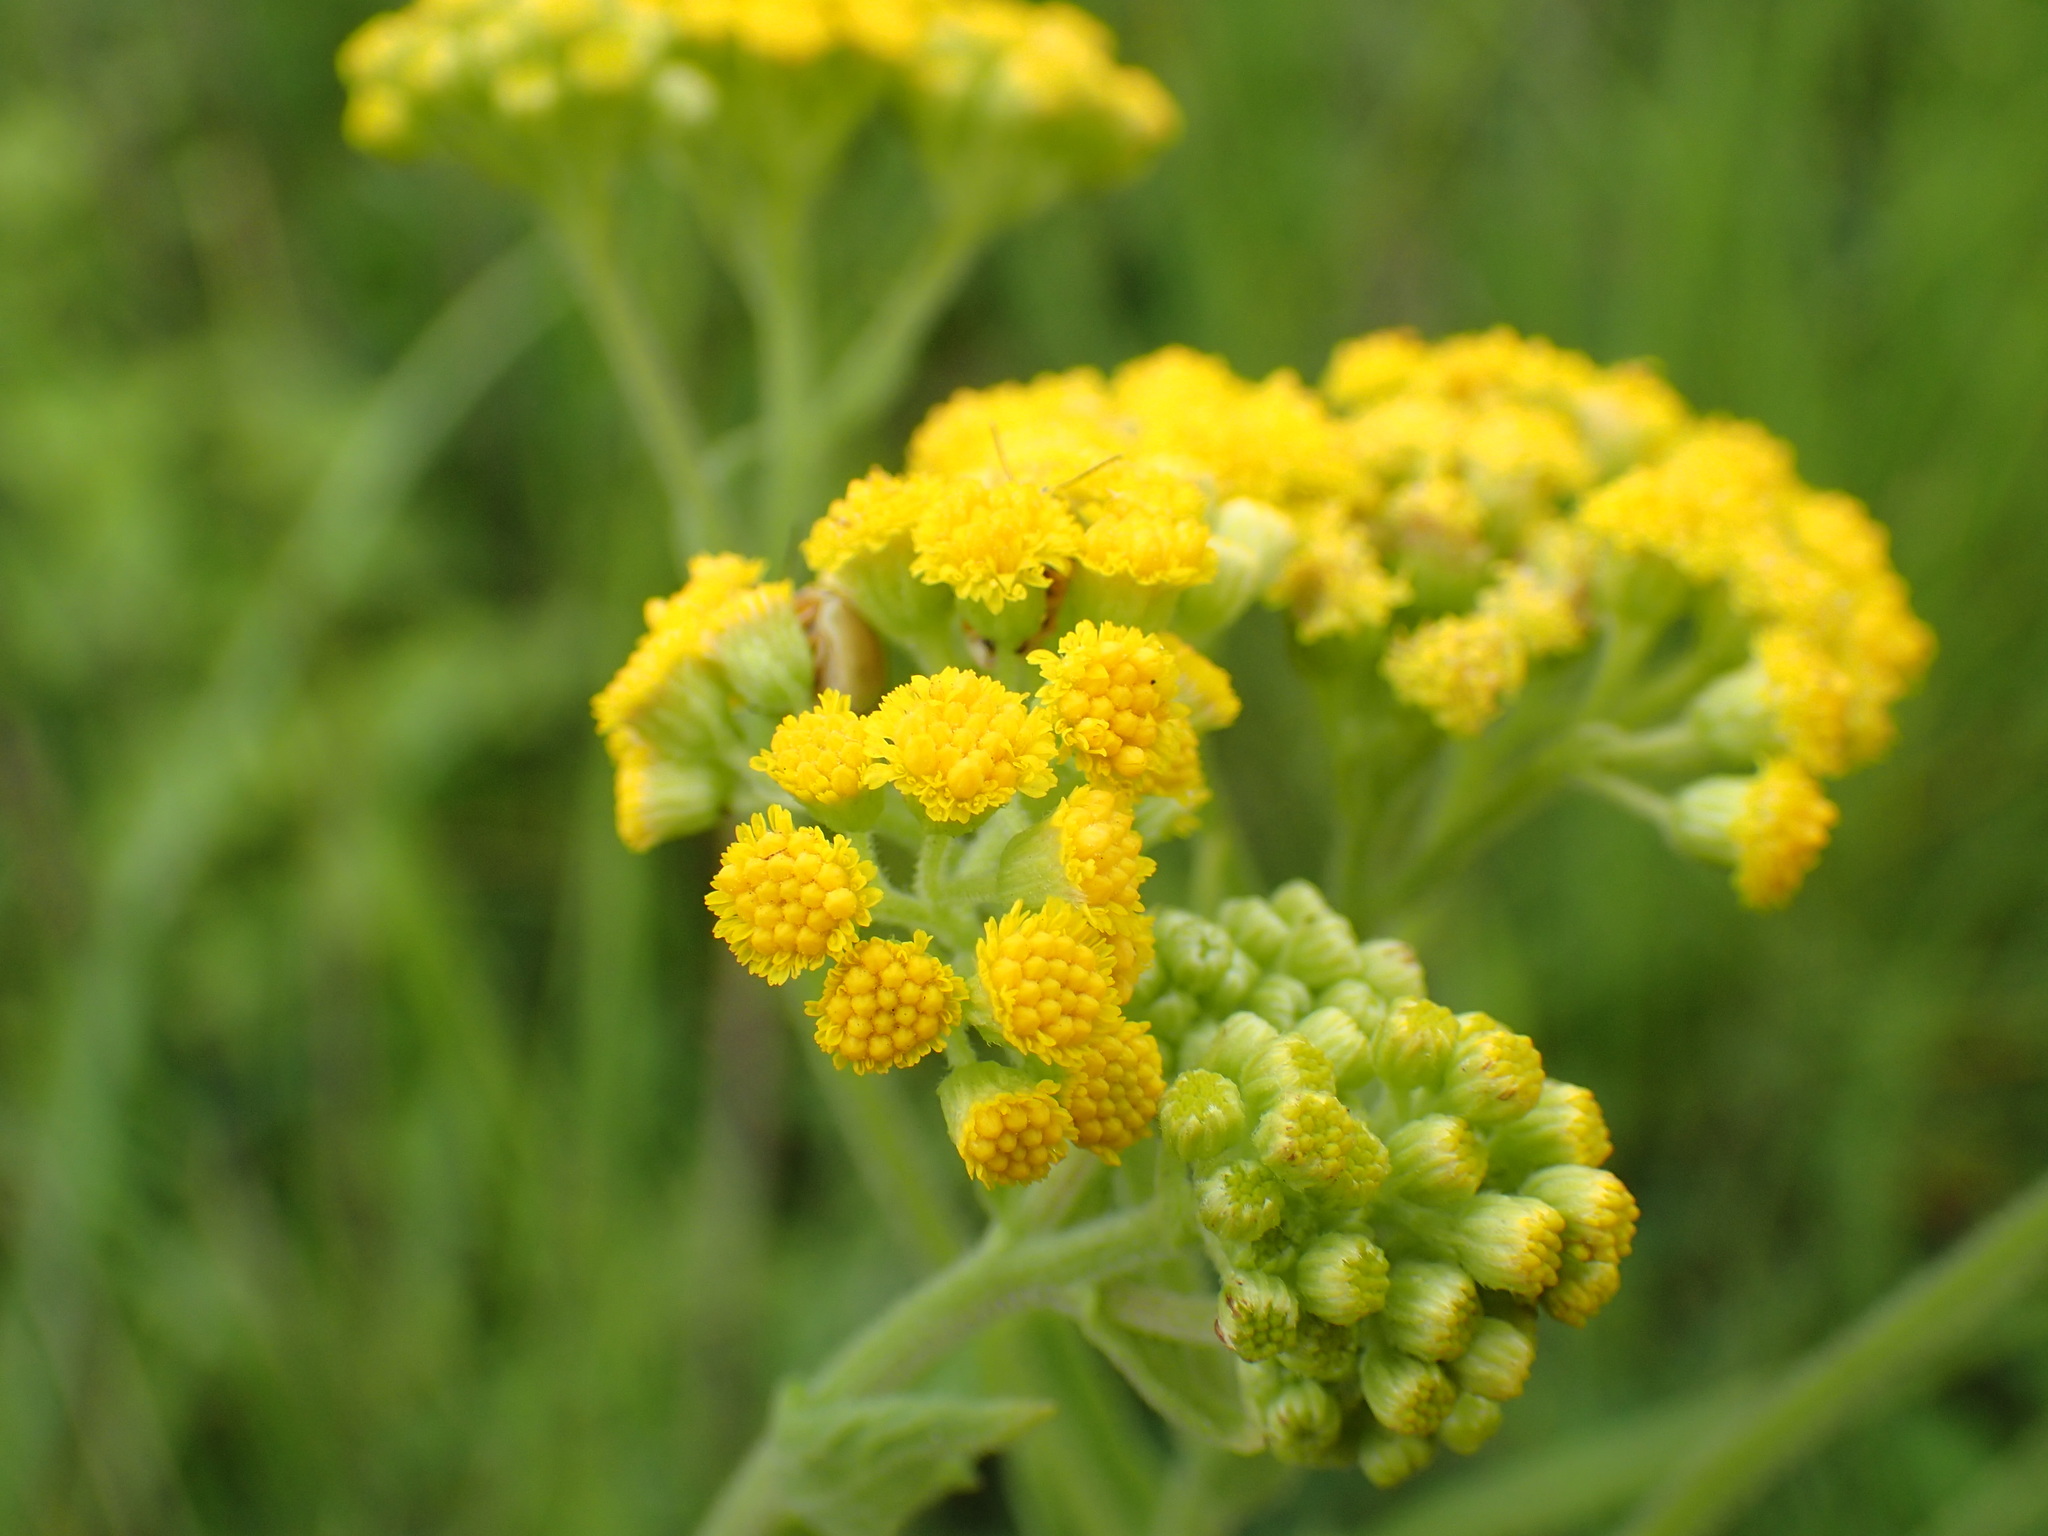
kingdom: Plantae
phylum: Tracheophyta
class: Magnoliopsida
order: Asterales
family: Asteraceae
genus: Nidorella
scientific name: Nidorella auriculata
